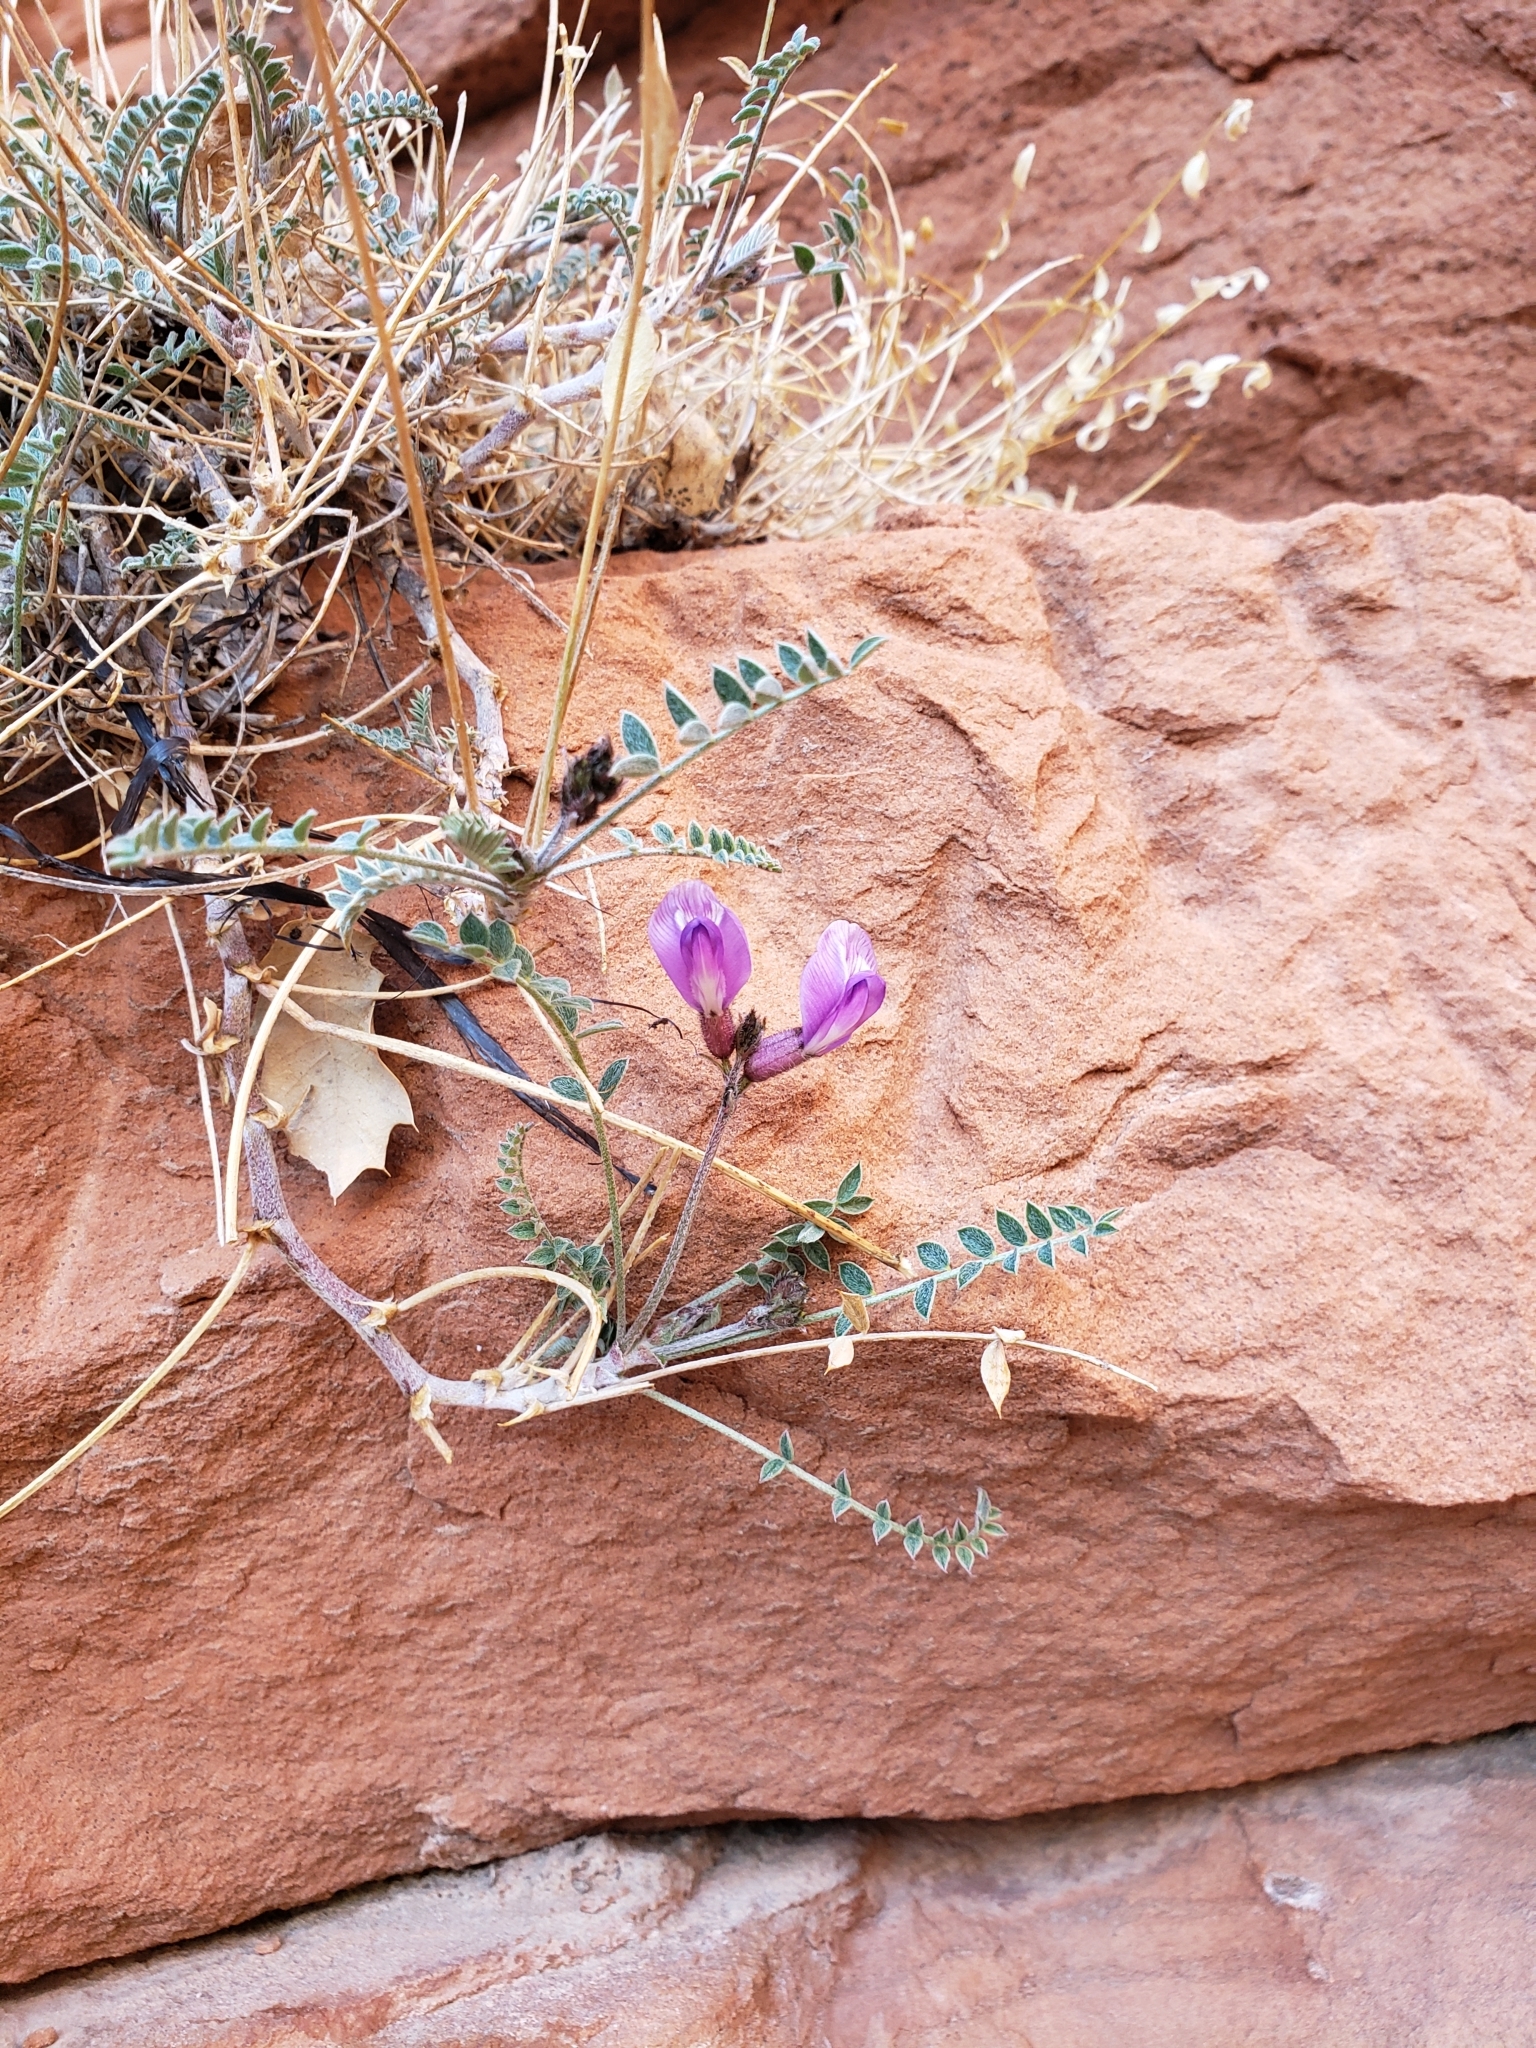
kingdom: Plantae
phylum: Tracheophyta
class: Magnoliopsida
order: Fabales
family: Fabaceae
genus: Astragalus
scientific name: Astragalus zionis
